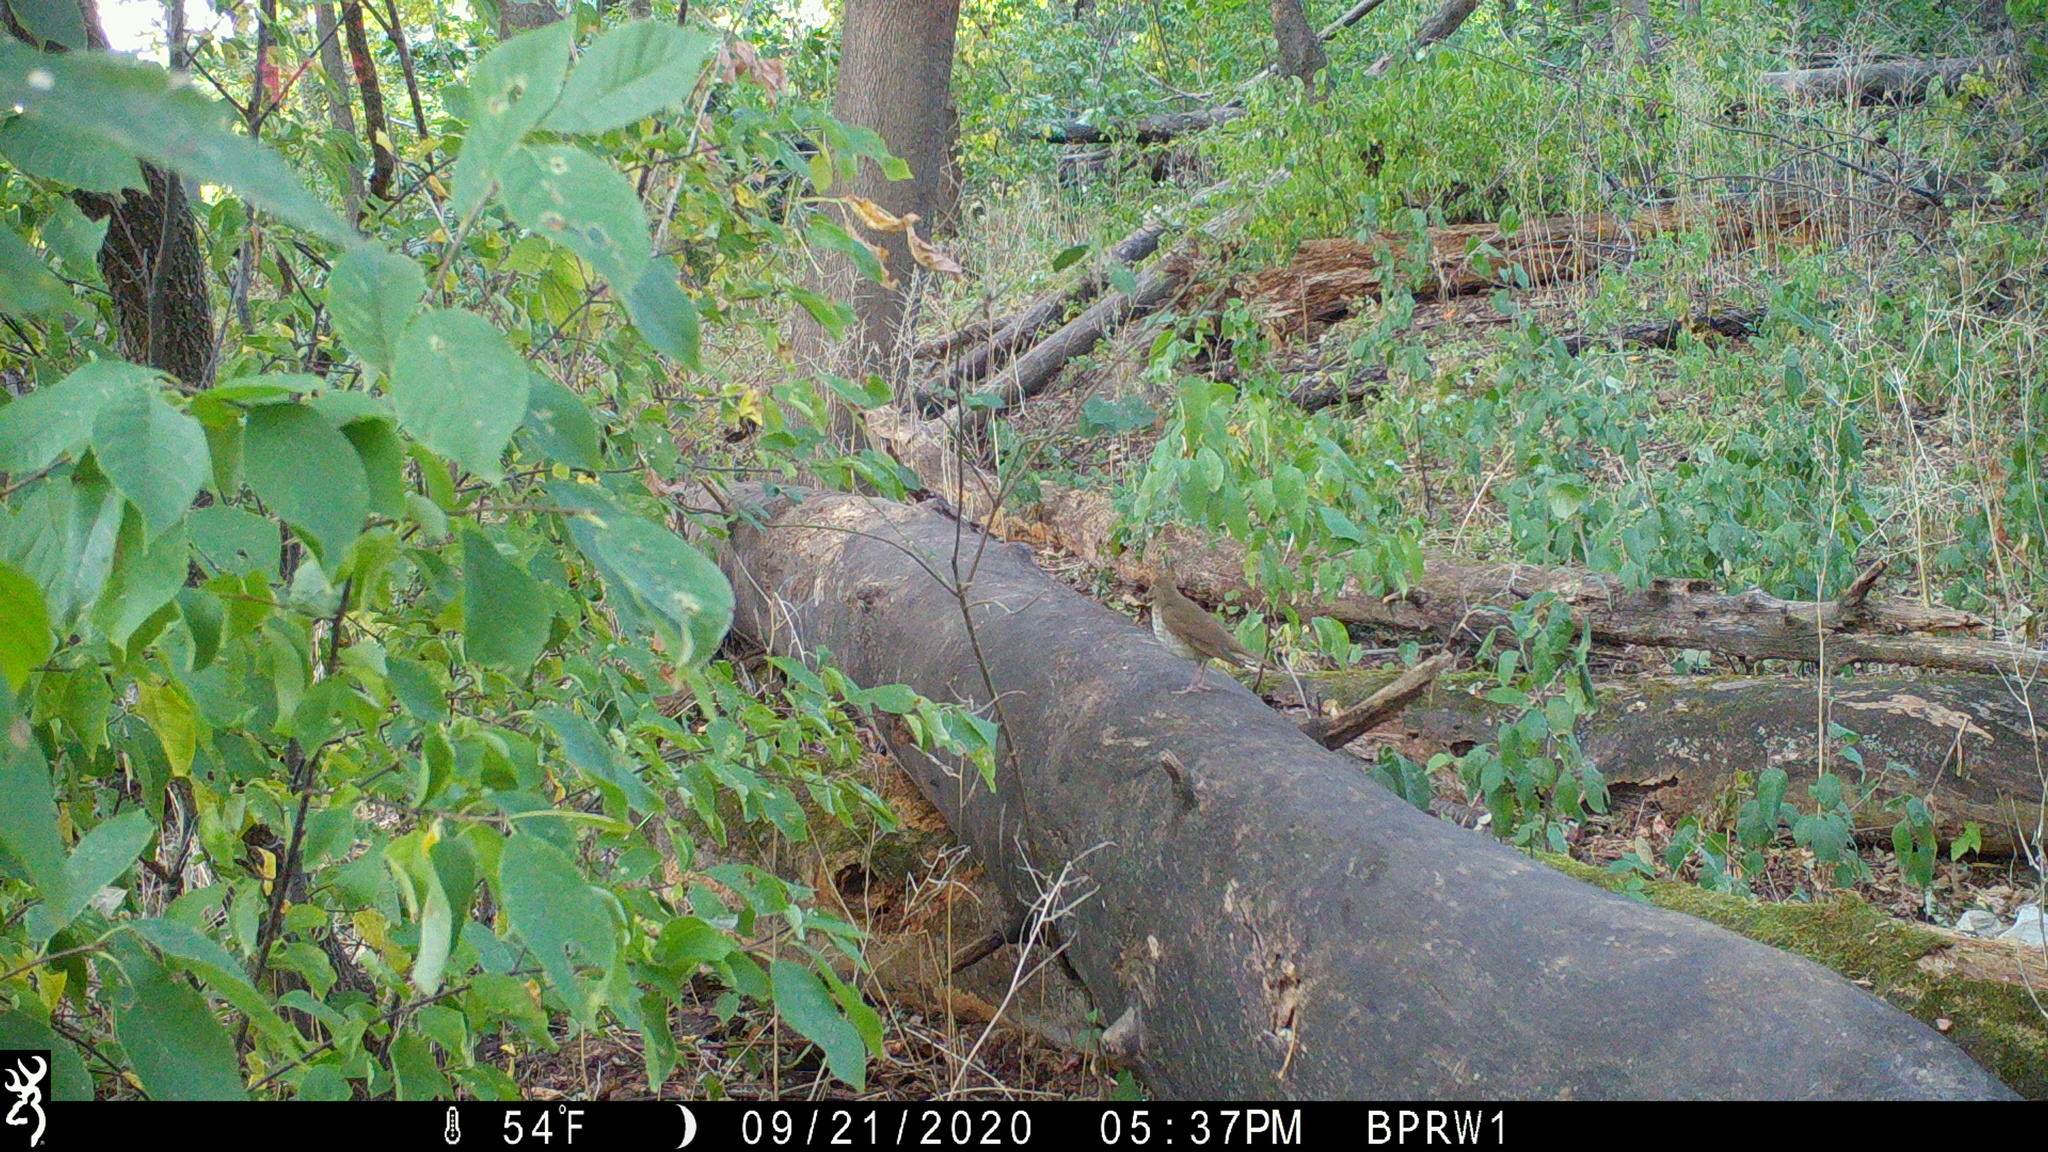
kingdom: Animalia
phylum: Chordata
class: Aves
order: Passeriformes
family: Turdidae
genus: Catharus
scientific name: Catharus fuscescens
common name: Veery
